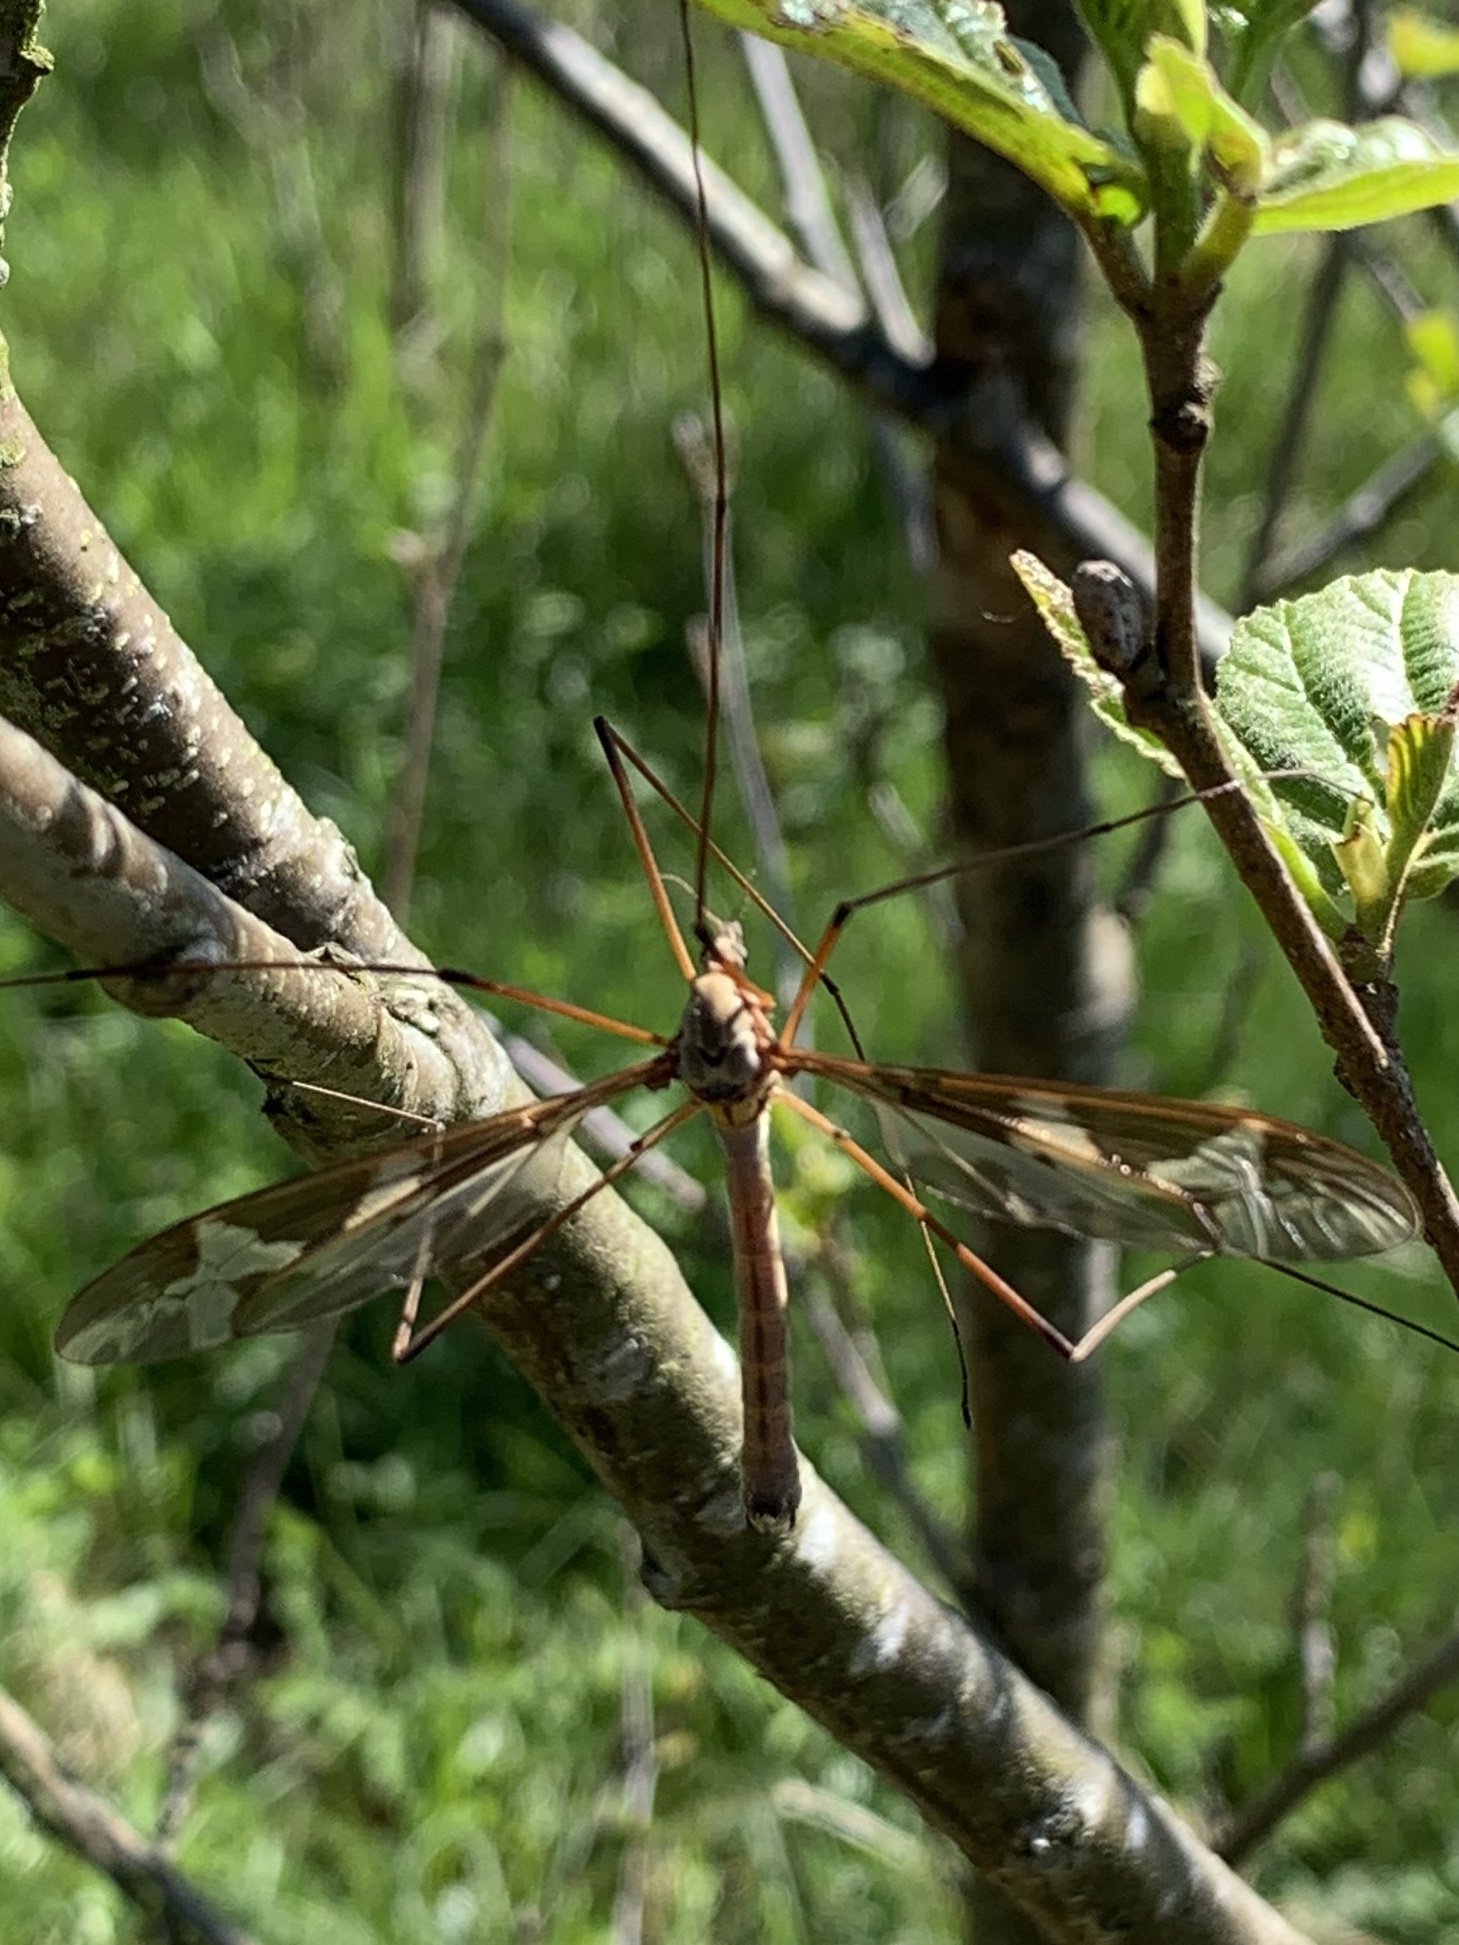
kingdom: Animalia
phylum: Arthropoda
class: Insecta
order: Diptera
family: Tipulidae
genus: Tipula
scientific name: Tipula maxima
